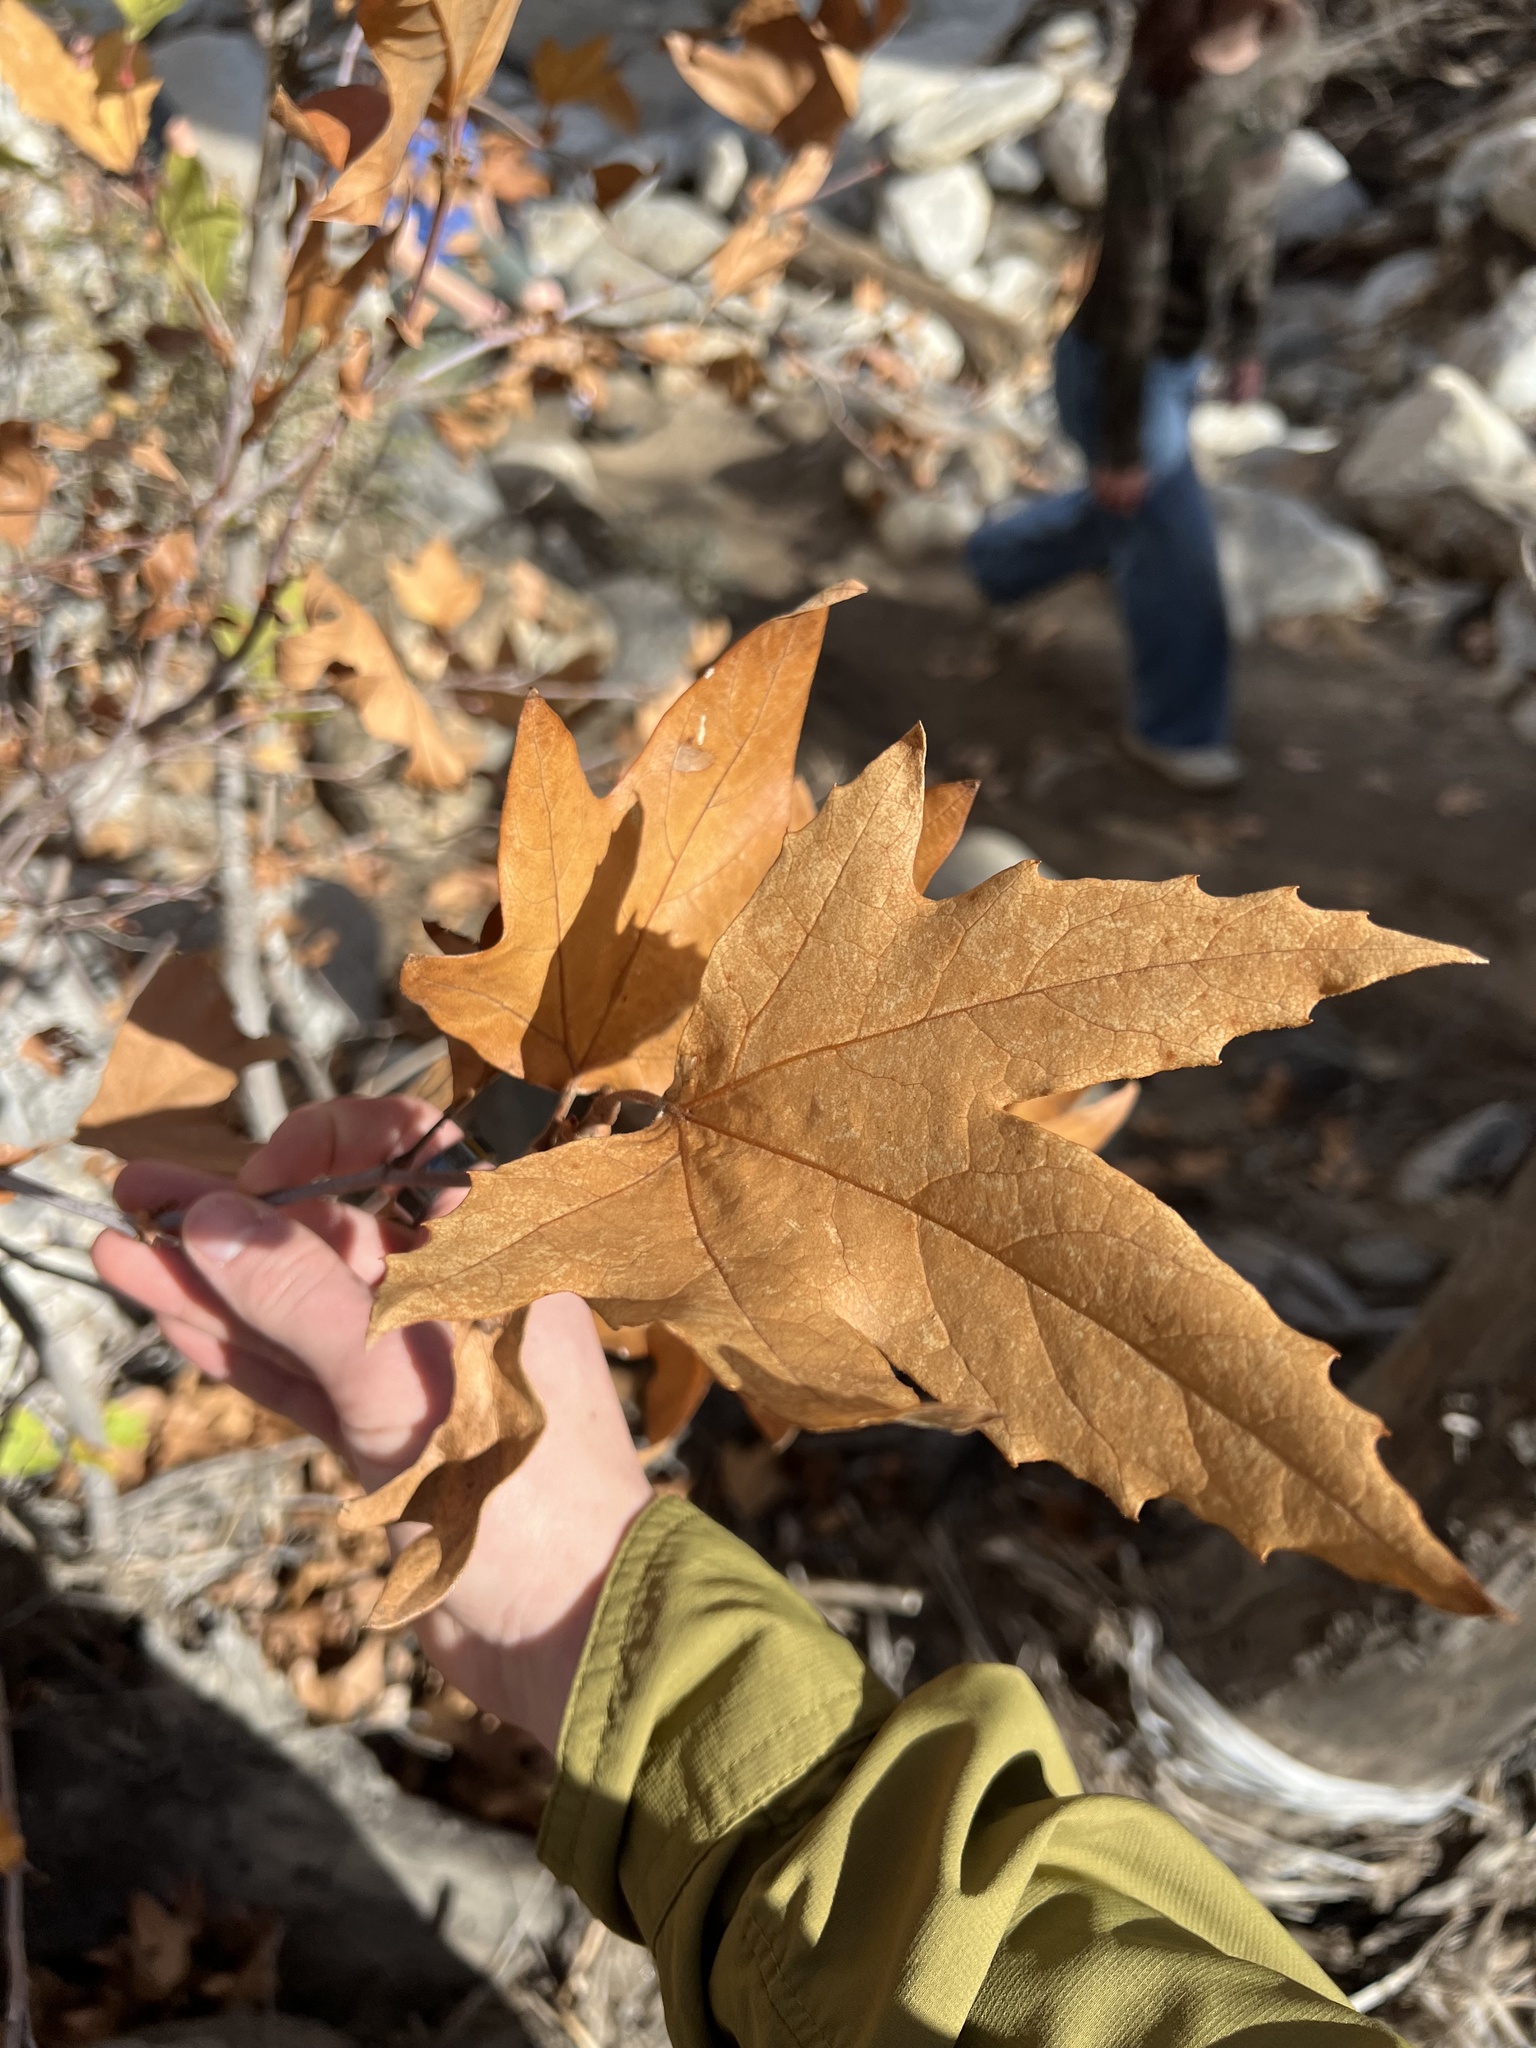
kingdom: Plantae
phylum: Tracheophyta
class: Magnoliopsida
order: Proteales
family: Platanaceae
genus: Platanus
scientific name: Platanus racemosa
